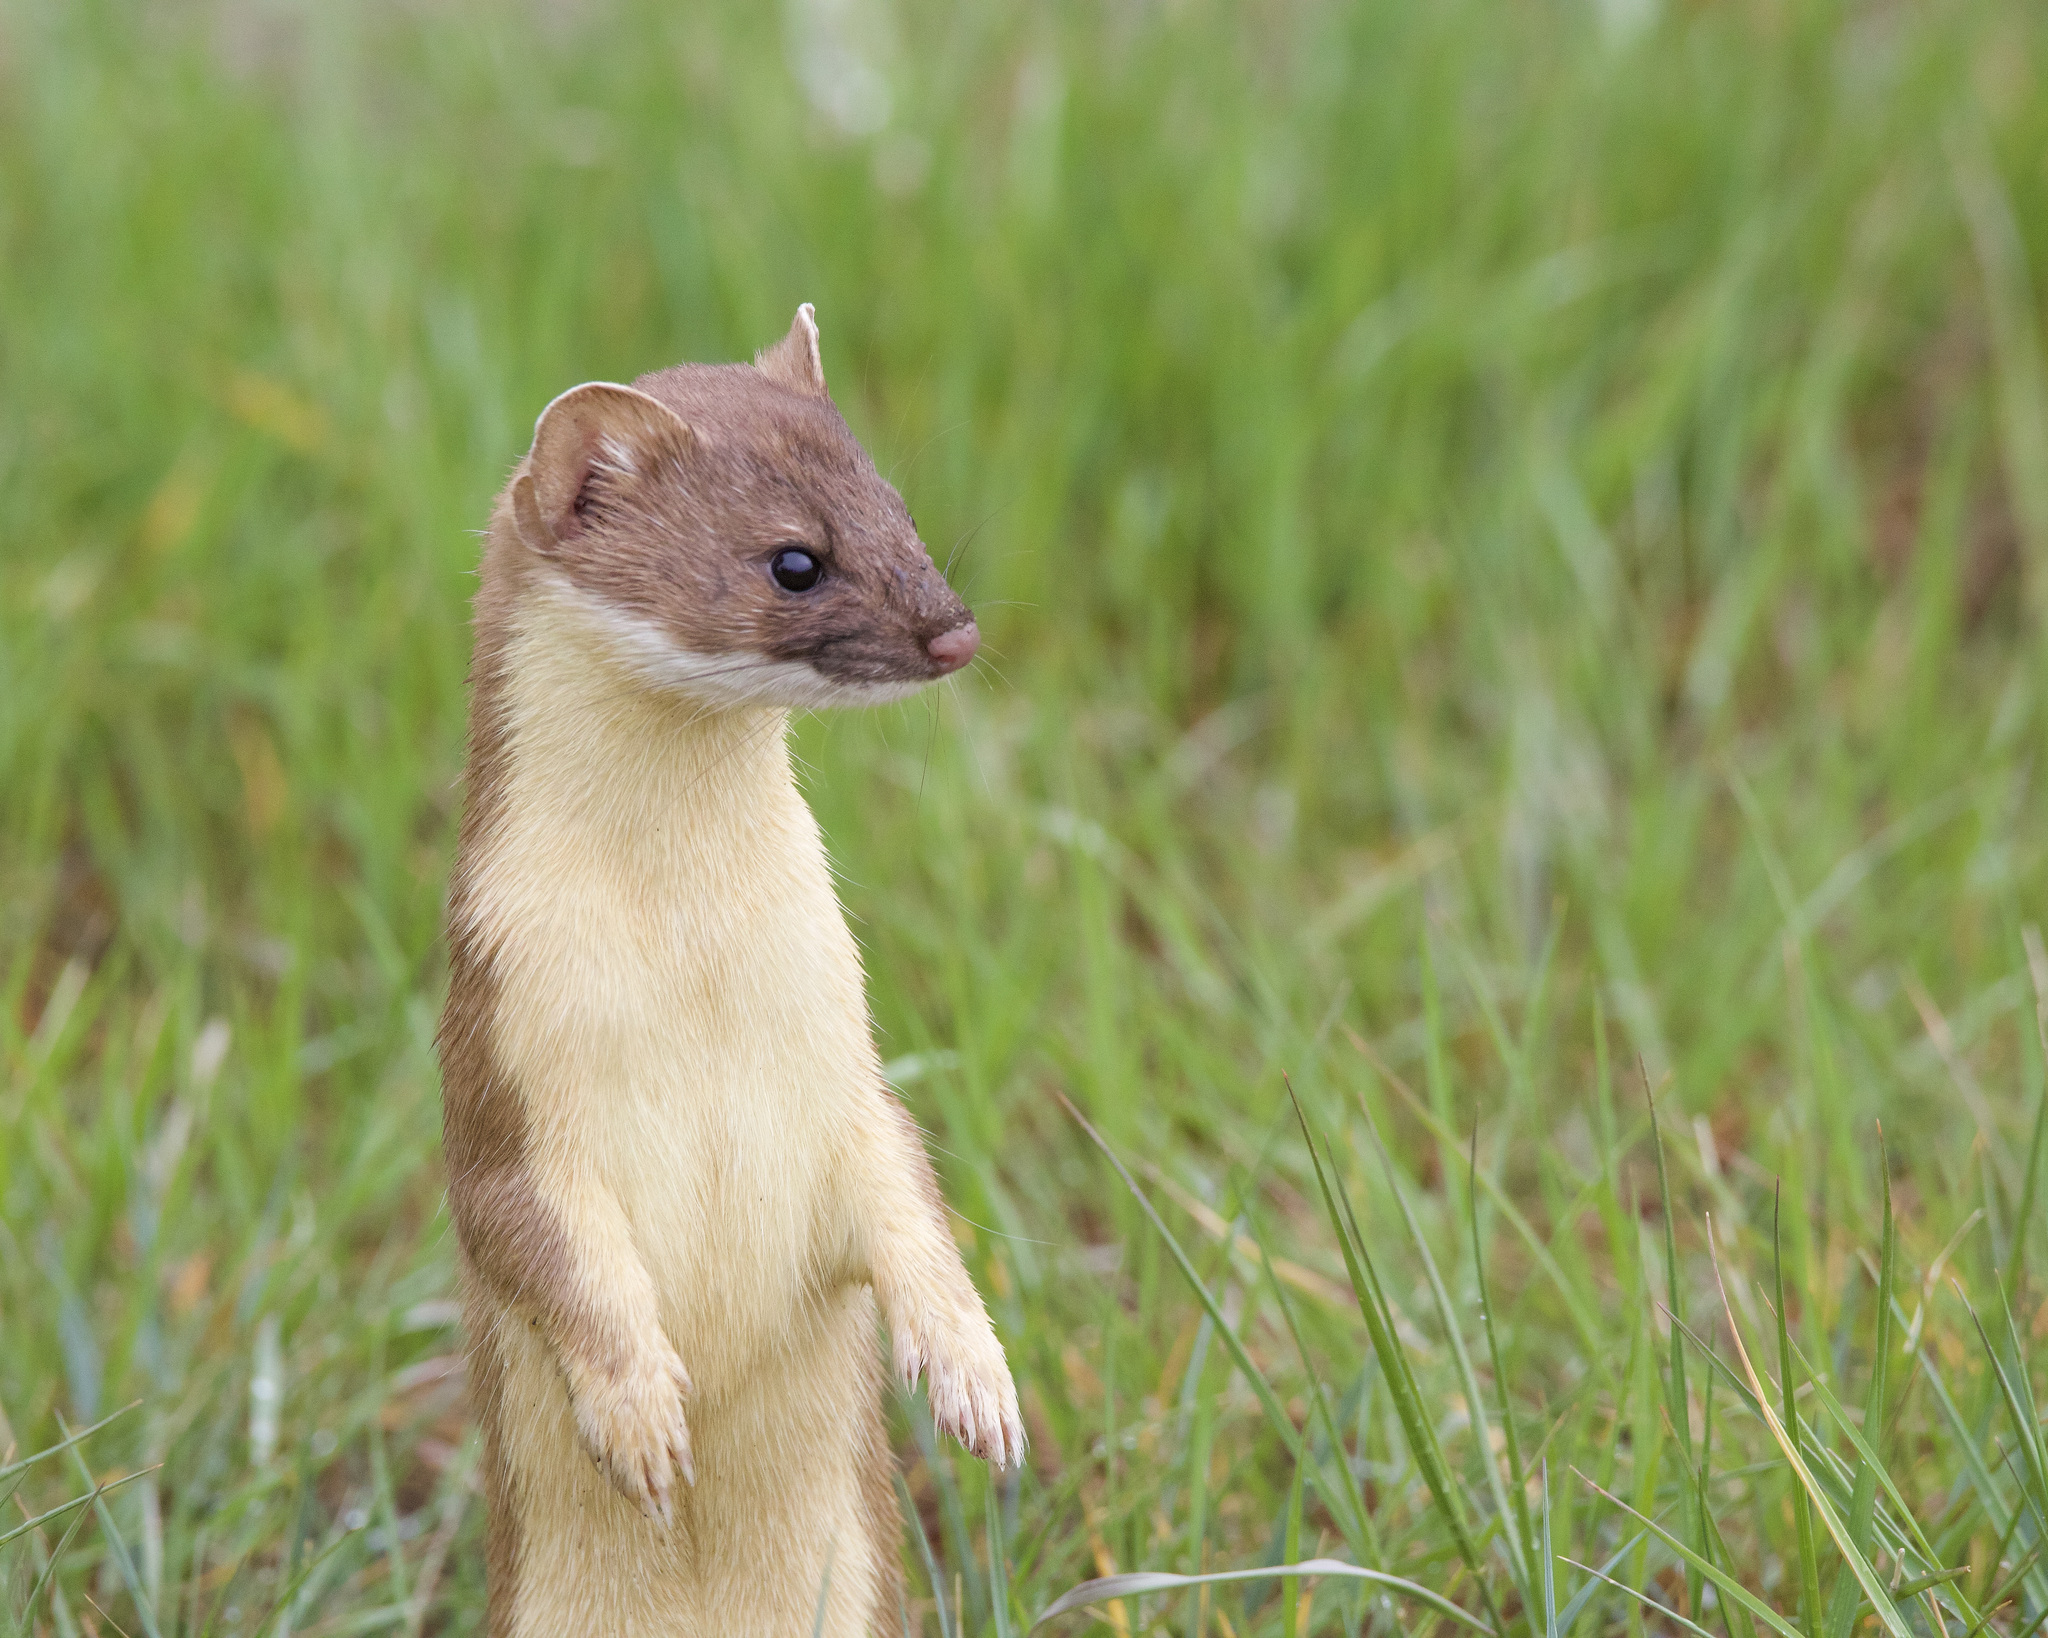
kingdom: Animalia
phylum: Chordata
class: Mammalia
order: Carnivora
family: Mustelidae
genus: Mustela
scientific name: Mustela
